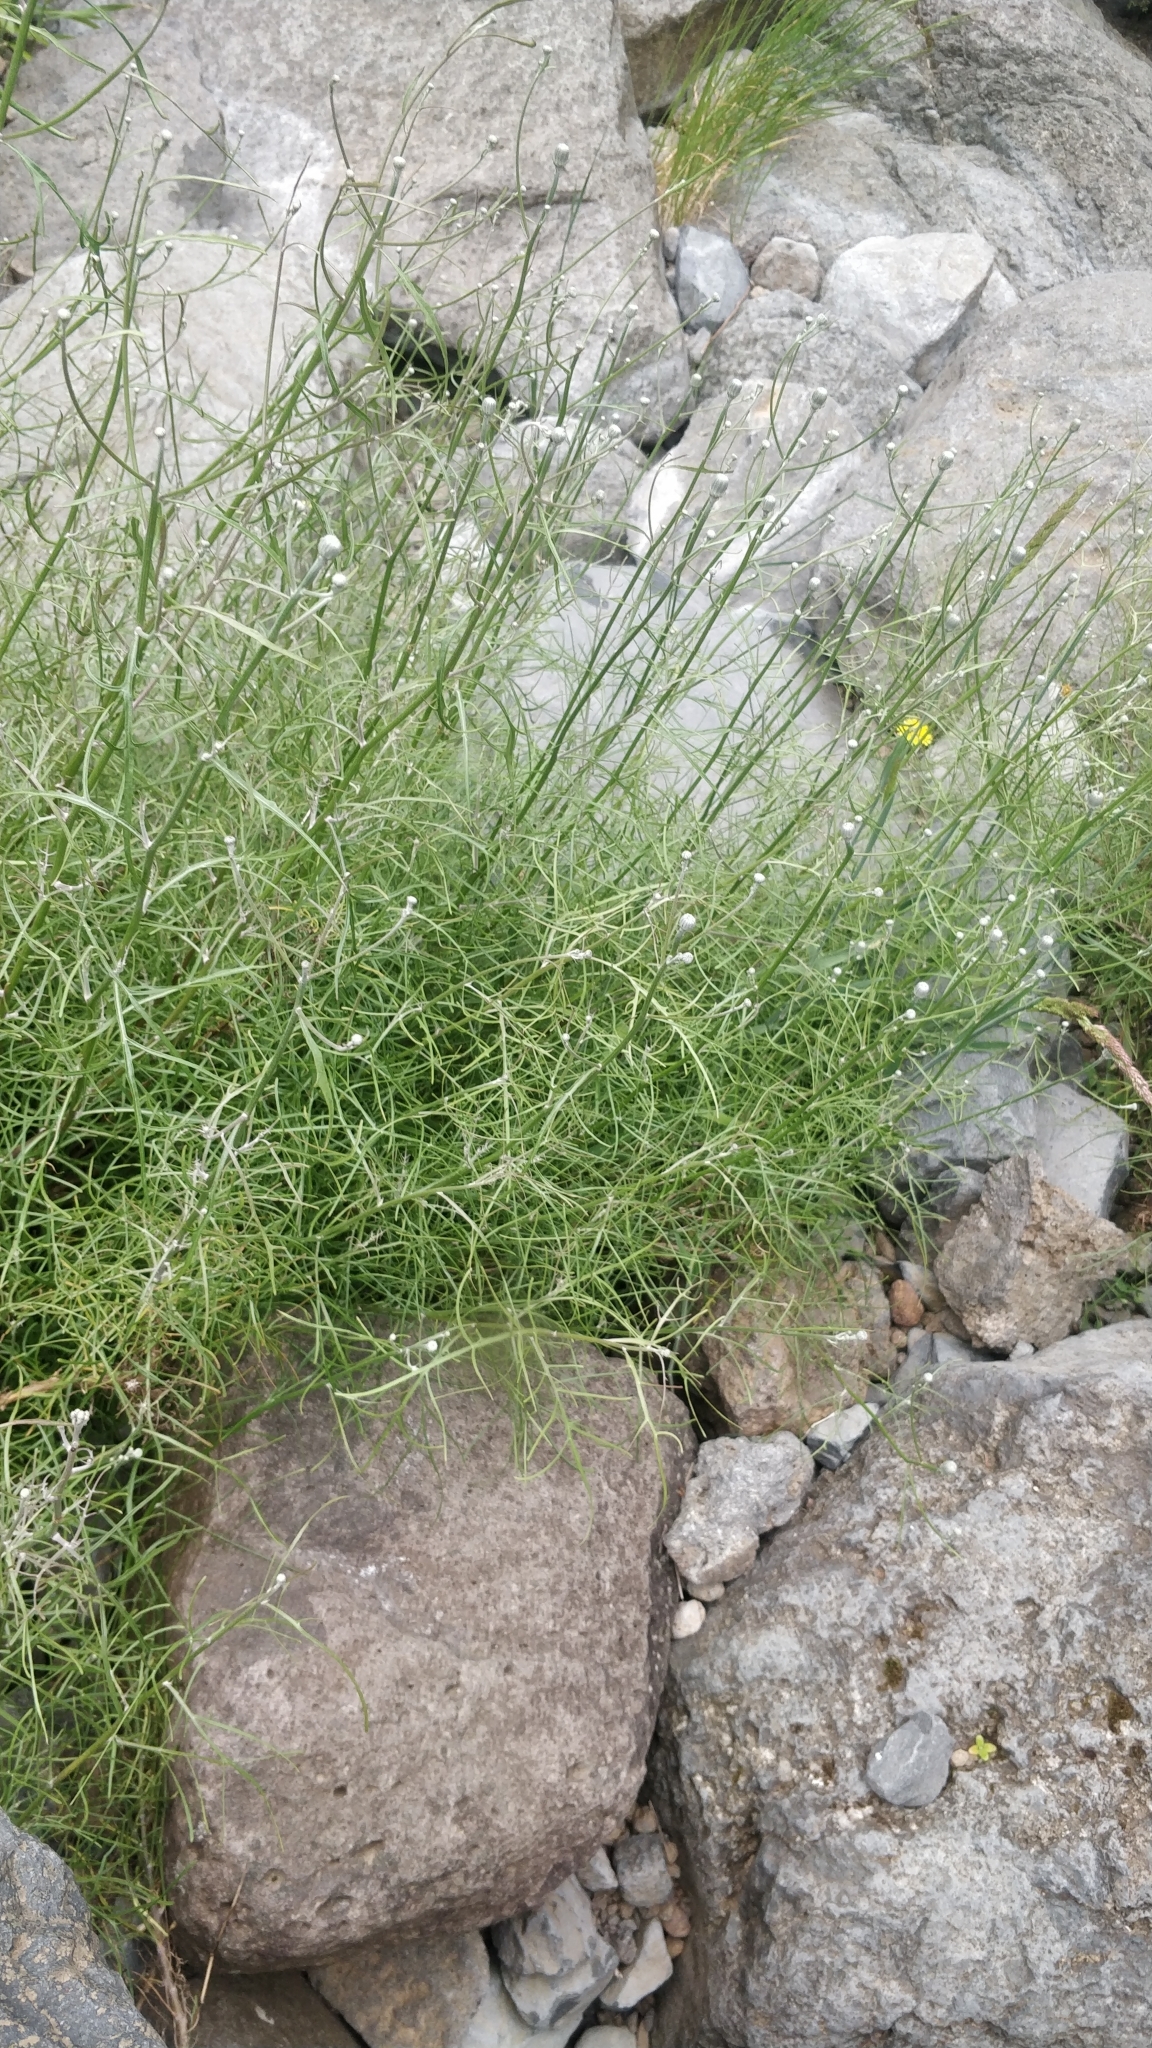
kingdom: Plantae
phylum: Tracheophyta
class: Magnoliopsida
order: Asterales
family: Asteraceae
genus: Tolpis
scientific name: Tolpis succulenta
